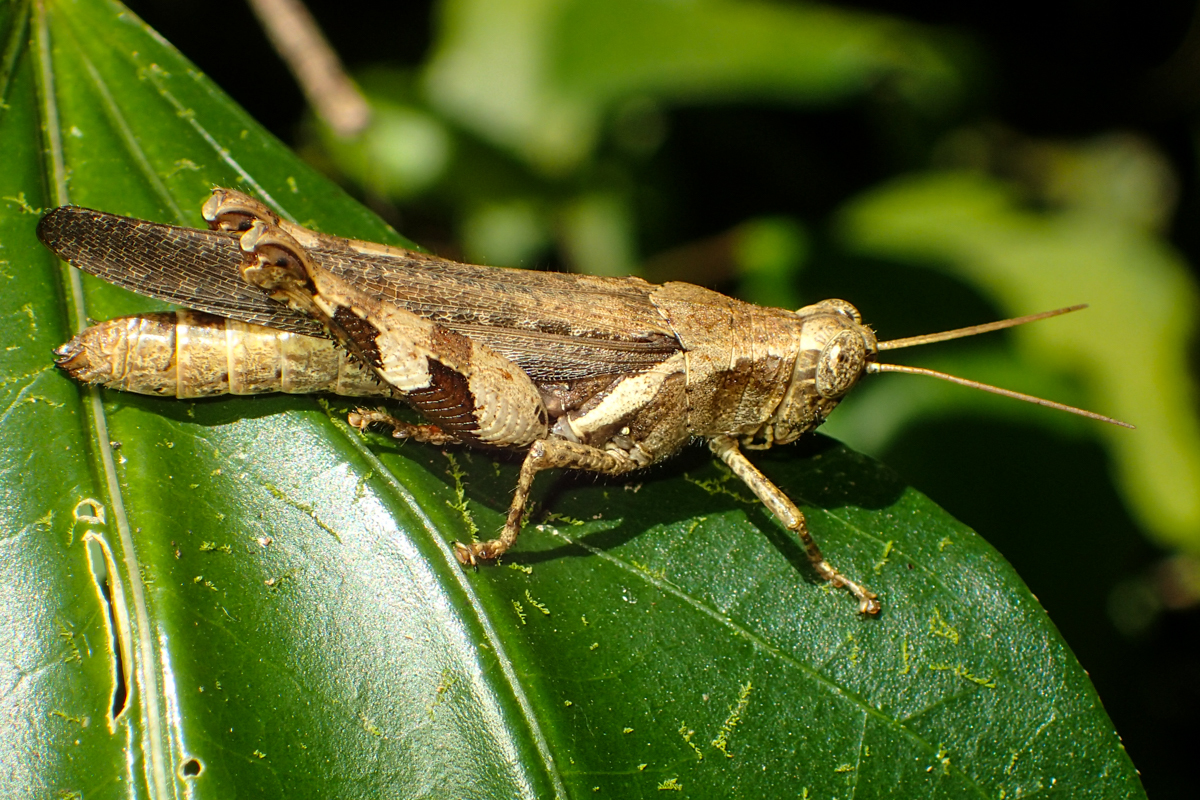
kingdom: Animalia
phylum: Arthropoda
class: Insecta
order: Orthoptera
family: Acrididae
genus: Xenocatantops
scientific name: Xenocatantops humile
